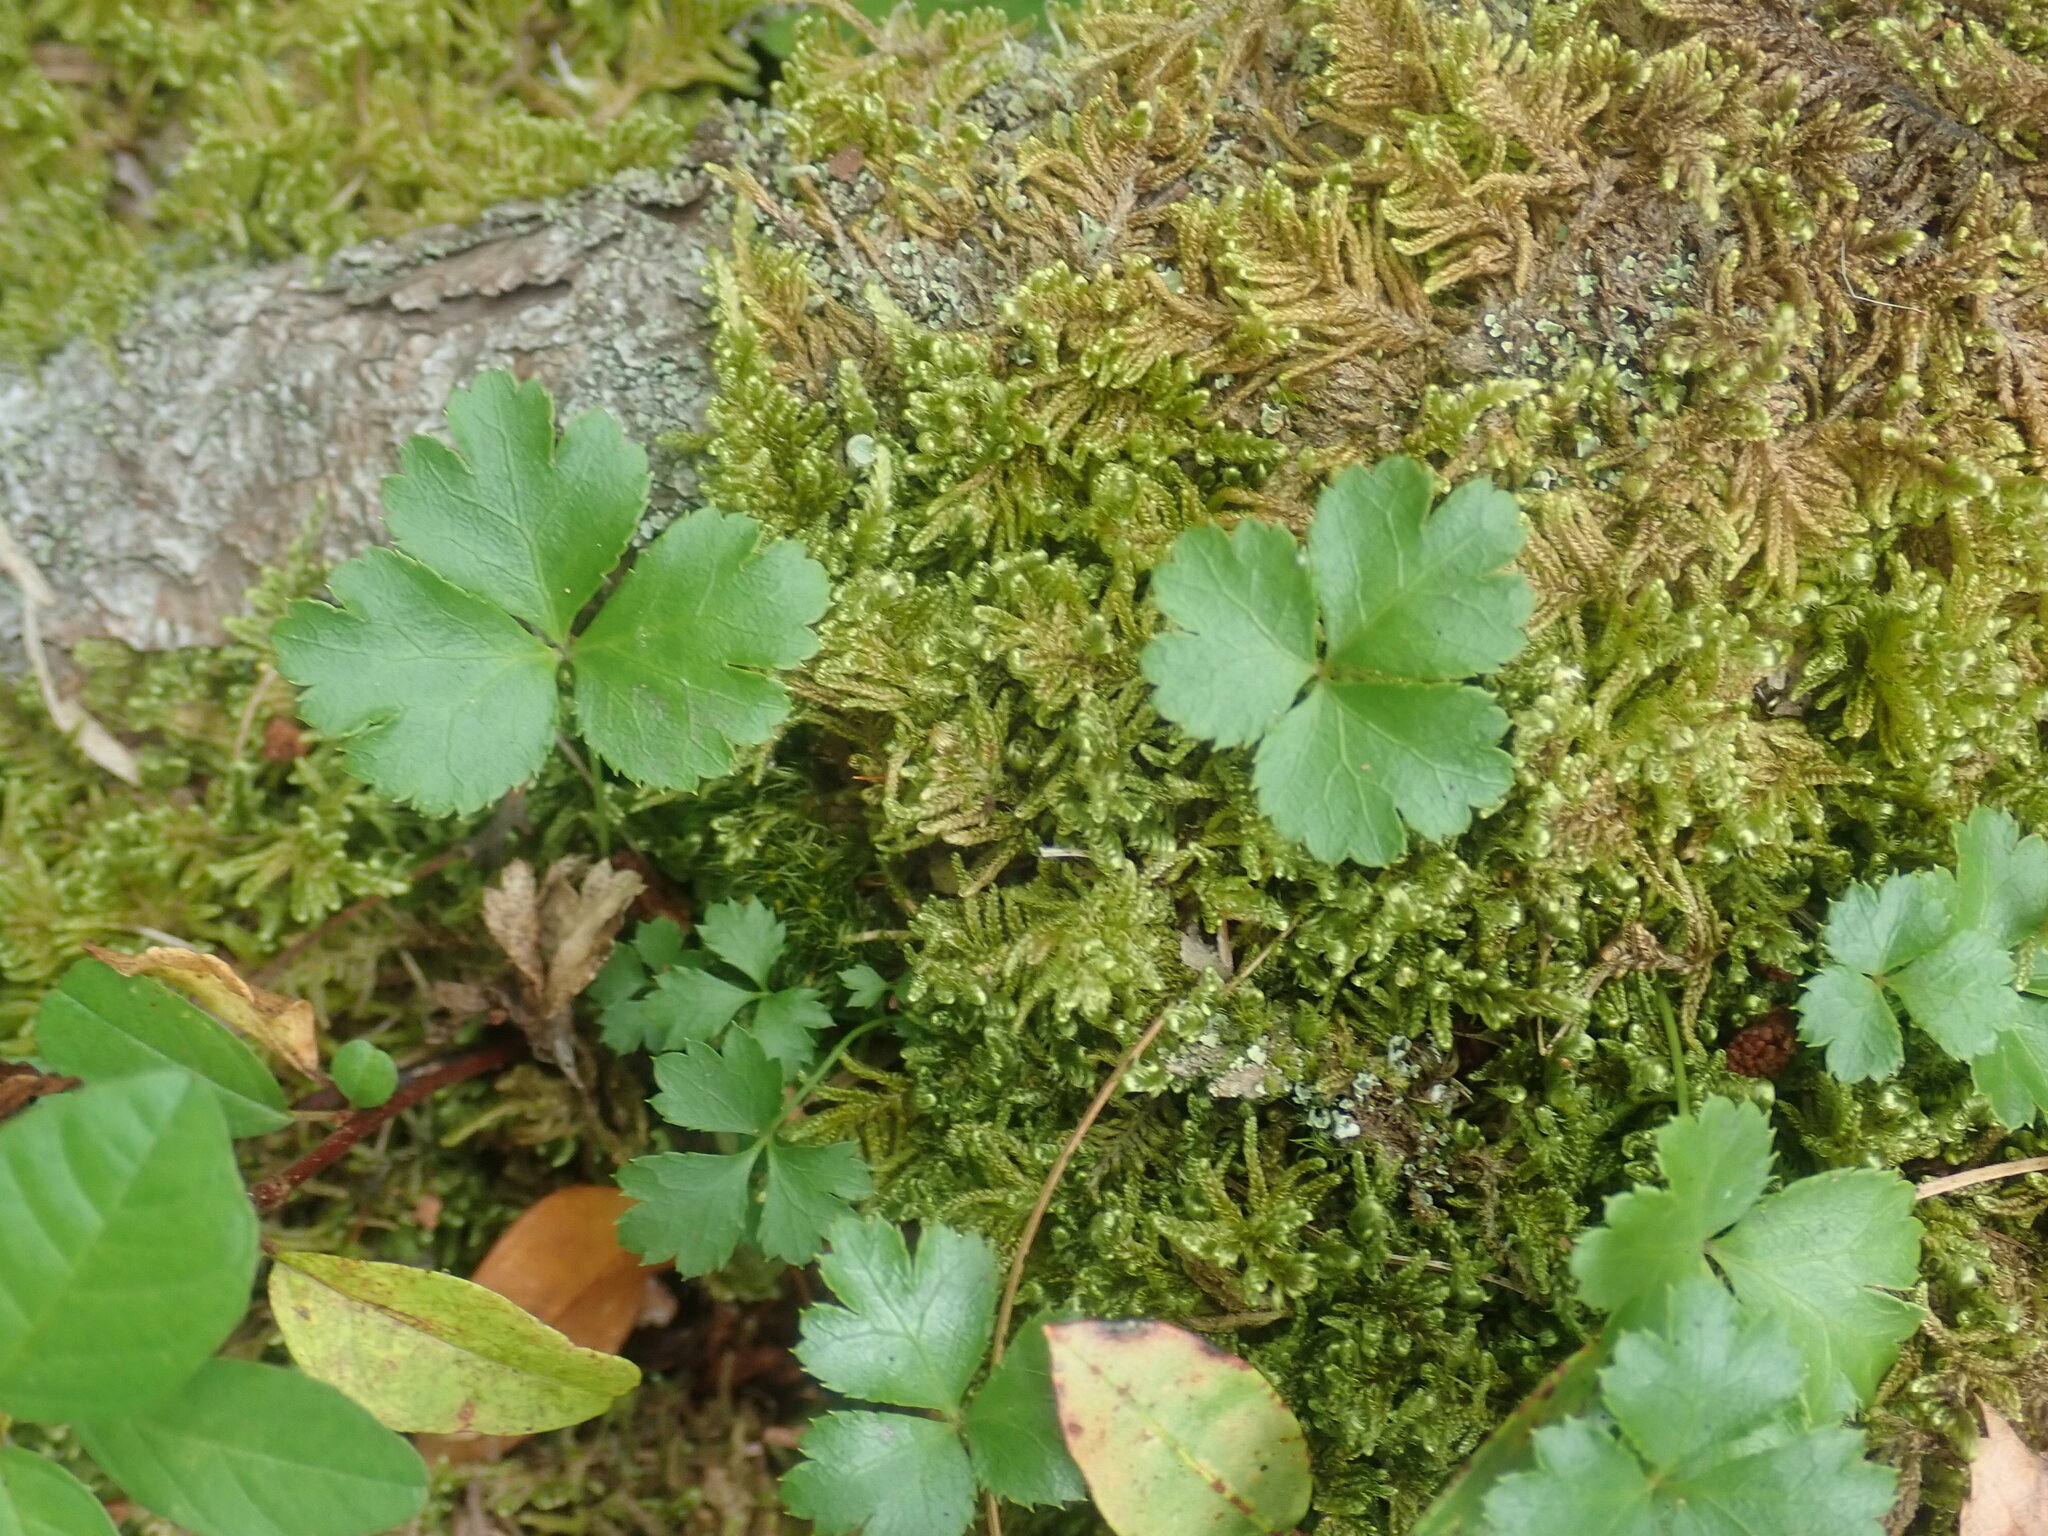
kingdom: Plantae
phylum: Tracheophyta
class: Magnoliopsida
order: Ranunculales
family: Ranunculaceae
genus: Coptis
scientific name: Coptis trifolia
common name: Canker-root
